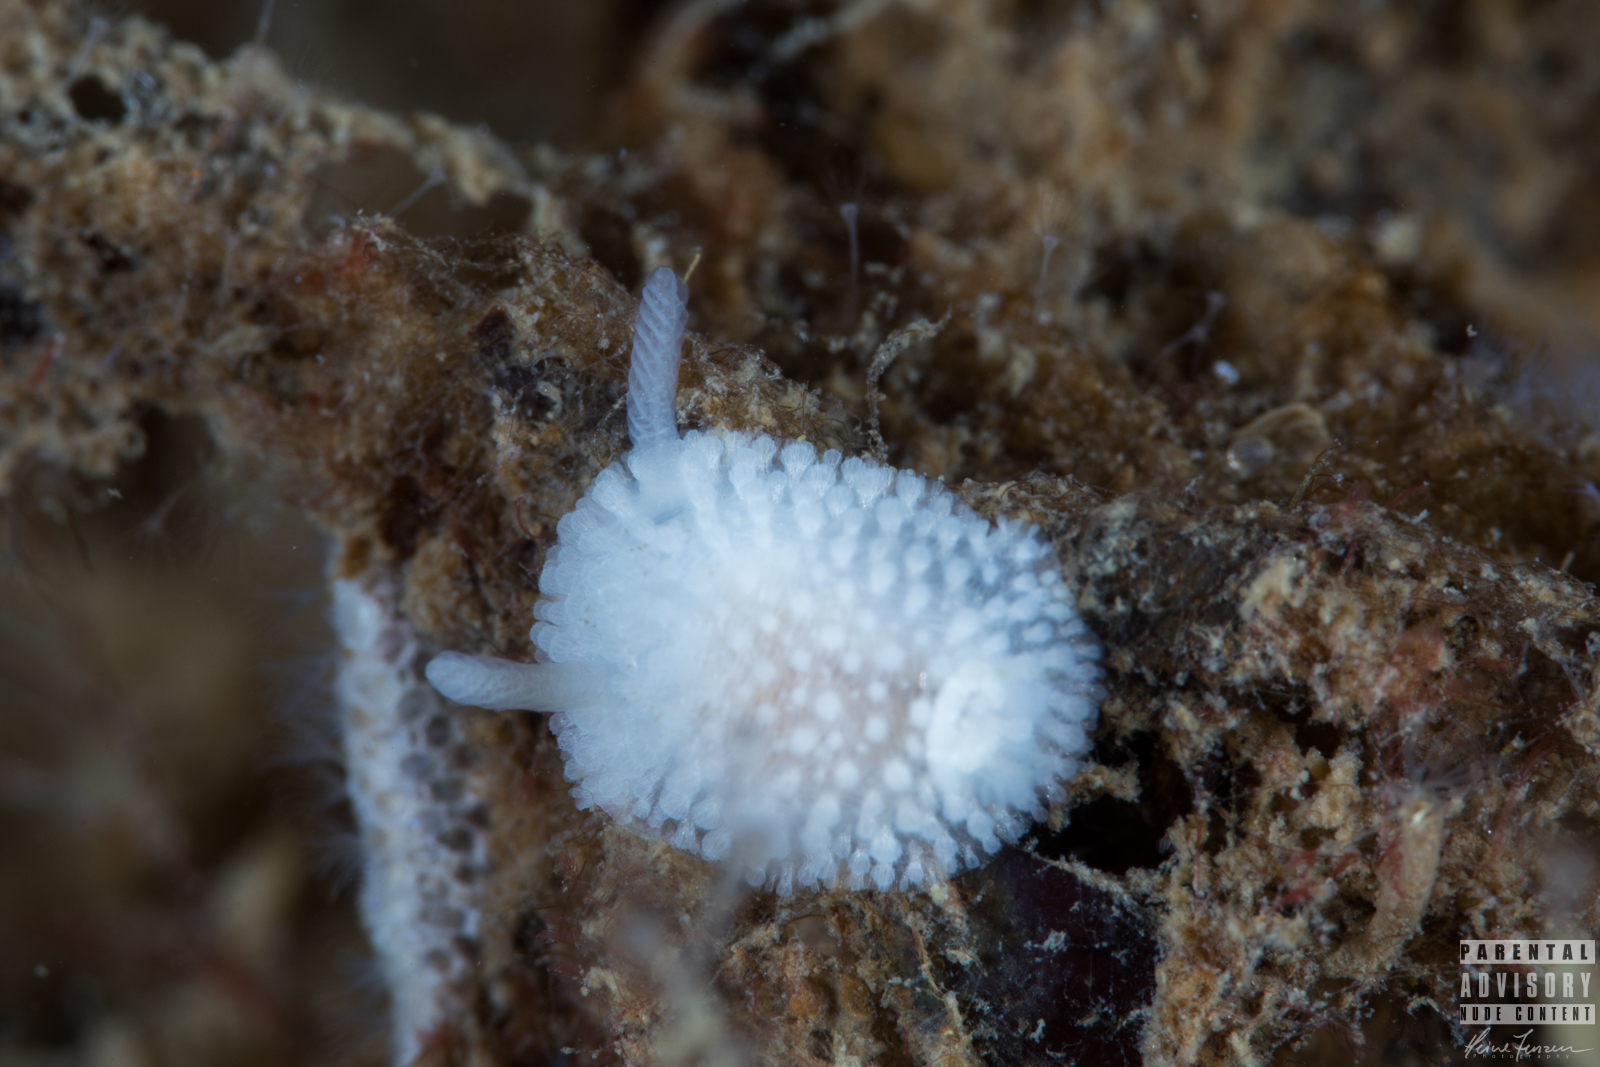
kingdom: Animalia
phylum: Mollusca
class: Gastropoda
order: Nudibranchia
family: Onchidorididae
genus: Onchidoris
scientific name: Onchidoris muricata
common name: Rough doris
